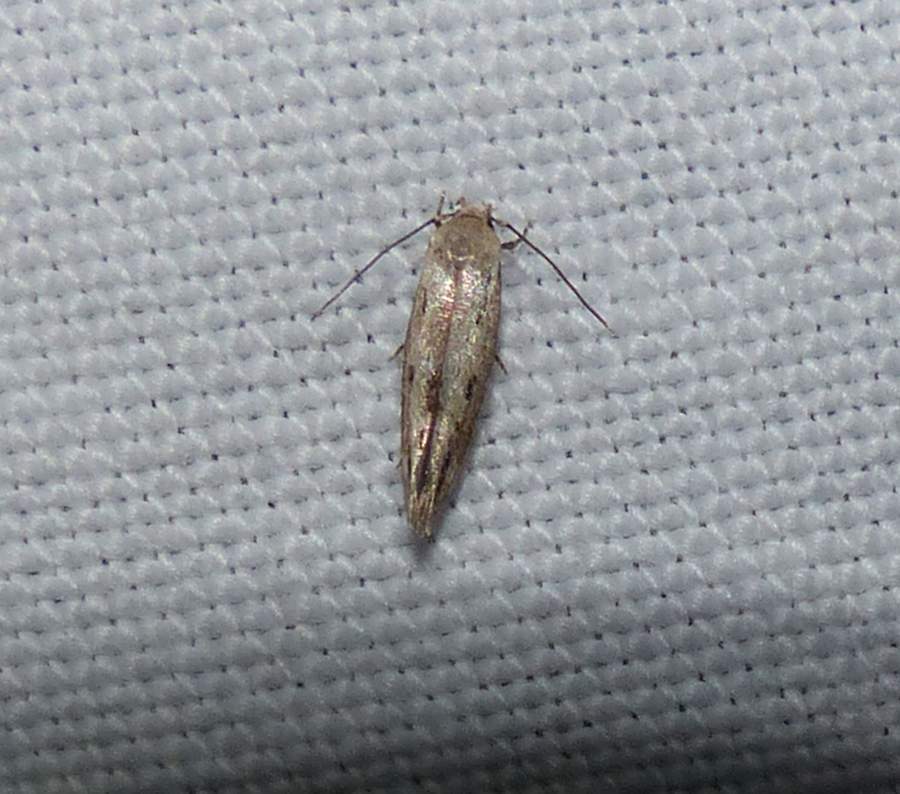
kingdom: Animalia
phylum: Arthropoda
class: Insecta
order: Lepidoptera
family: Momphidae
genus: Mompha
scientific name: Mompha brevivittella
